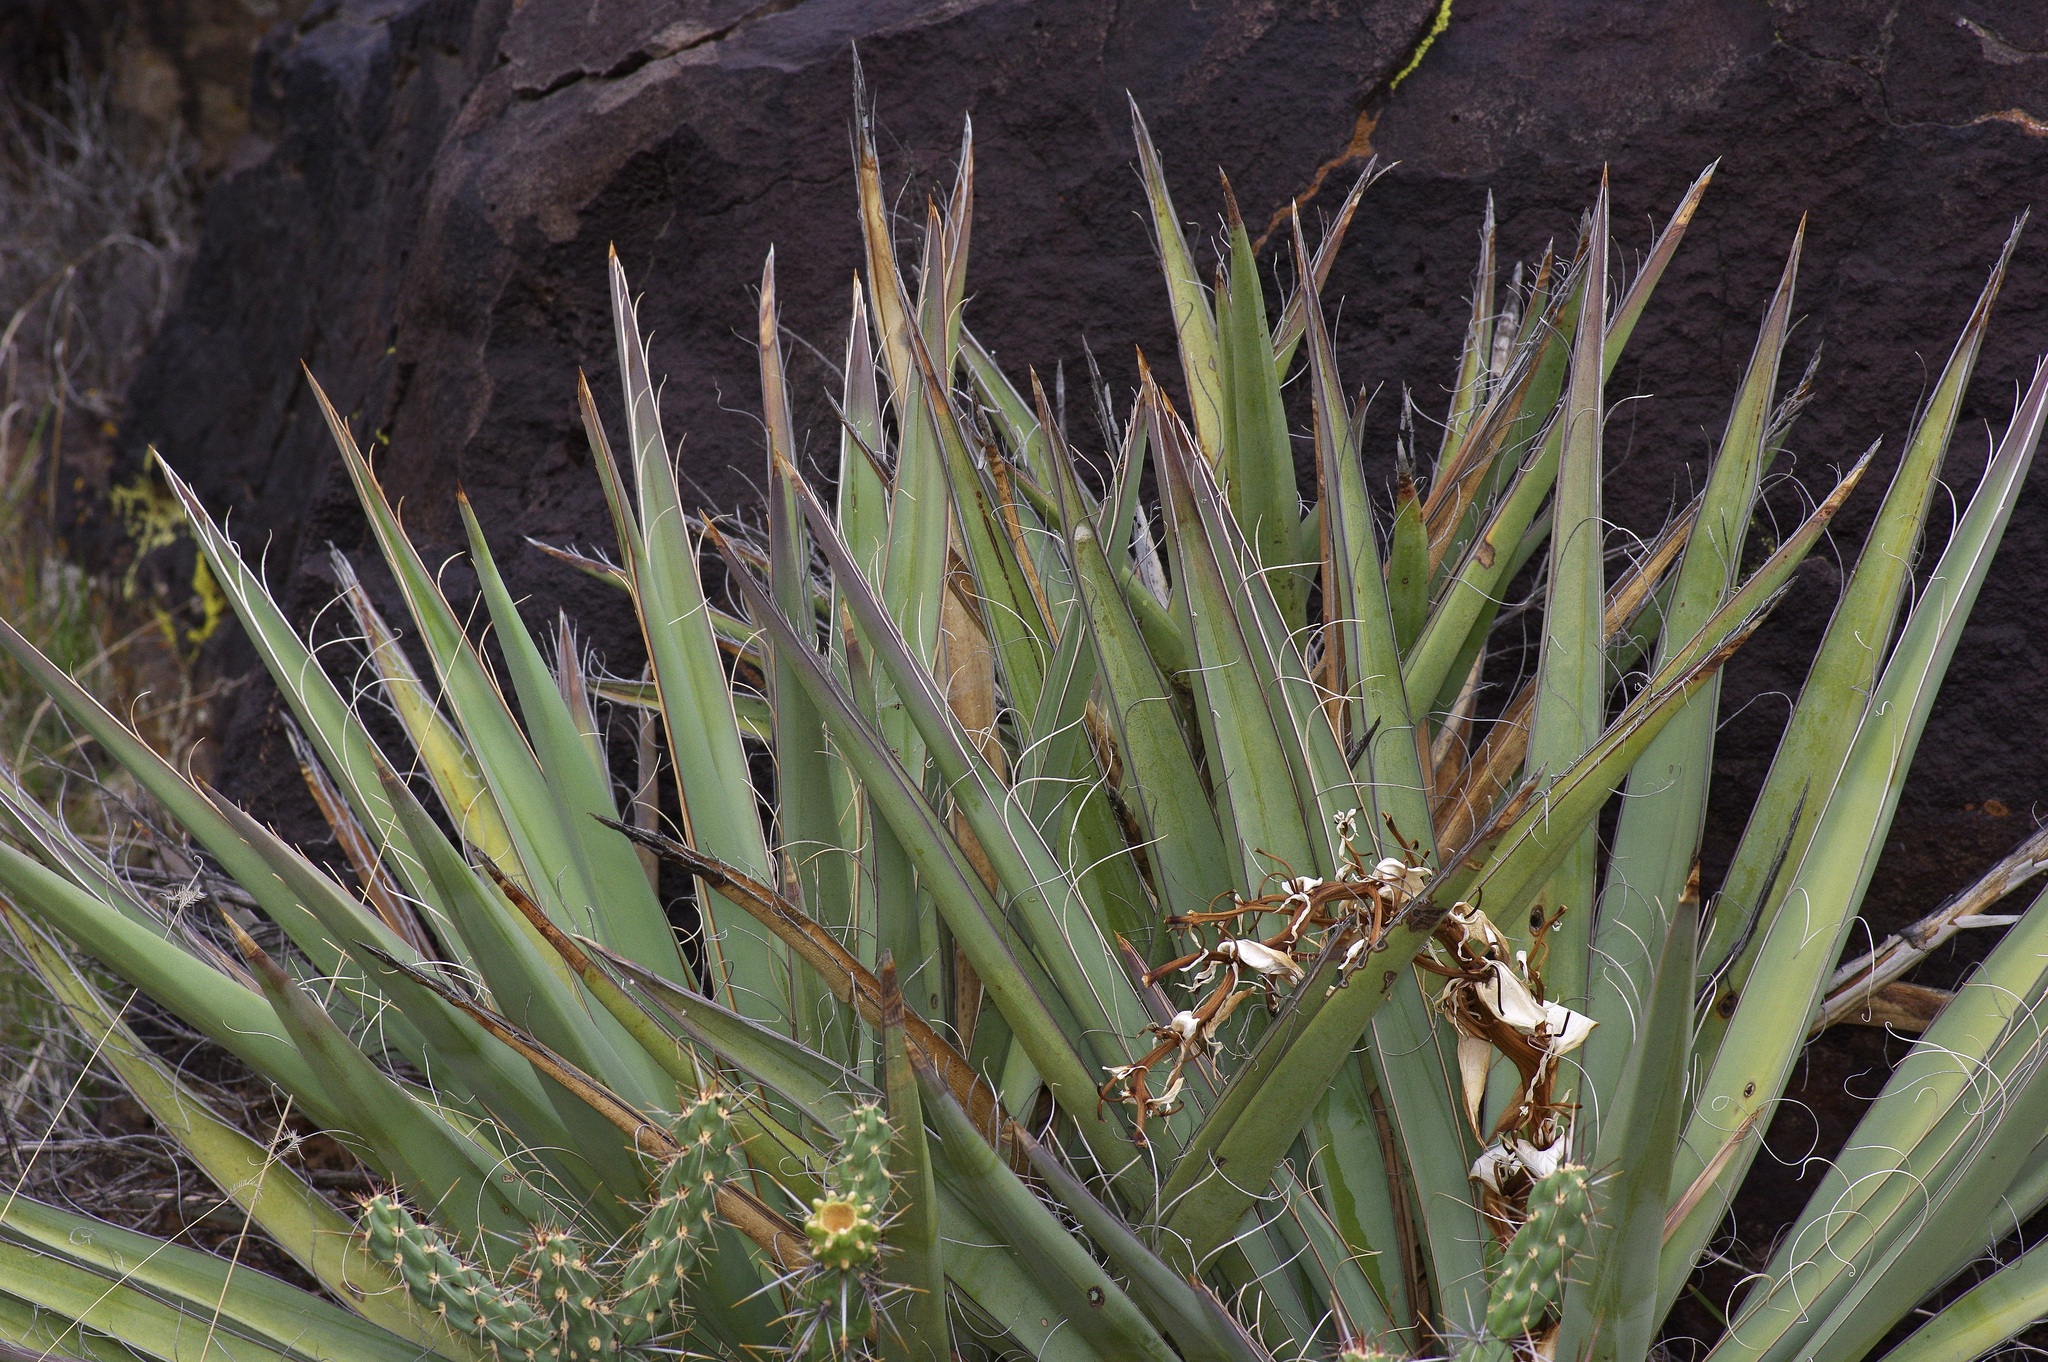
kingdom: Plantae
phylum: Tracheophyta
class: Liliopsida
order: Asparagales
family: Asparagaceae
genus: Yucca
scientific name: Yucca baccata
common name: Banana yucca
